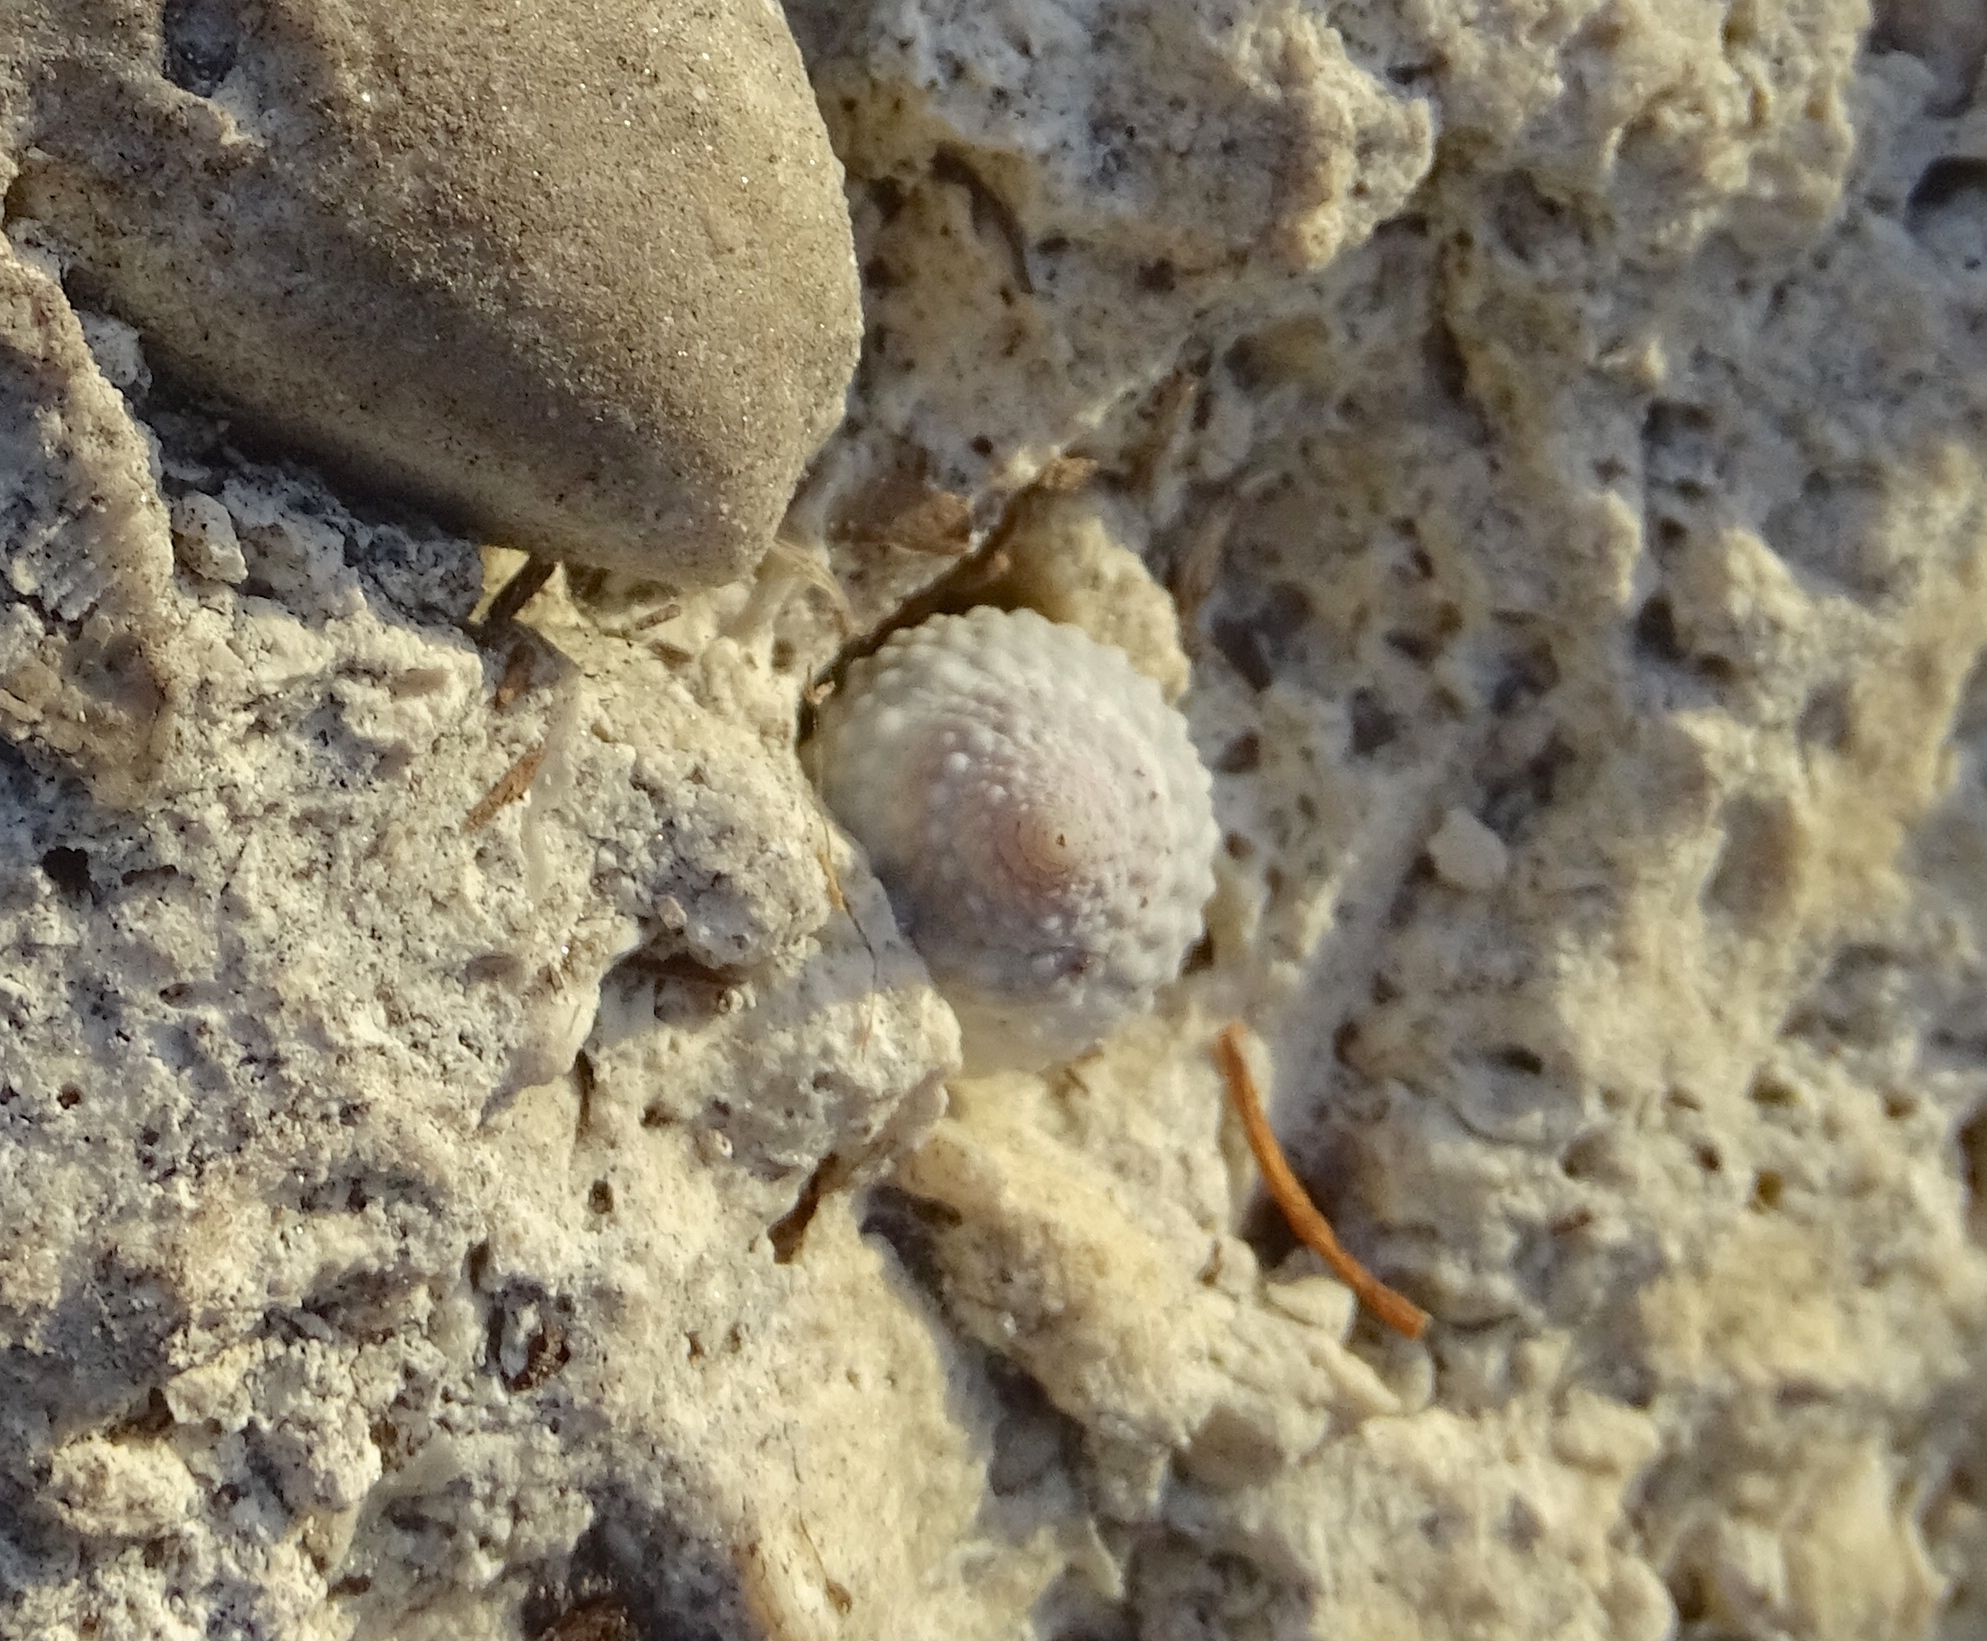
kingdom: Animalia
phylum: Mollusca
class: Gastropoda
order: Littorinimorpha
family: Littorinidae
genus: Cenchritis
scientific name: Cenchritis muricatus
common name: Beaded periwinkle
